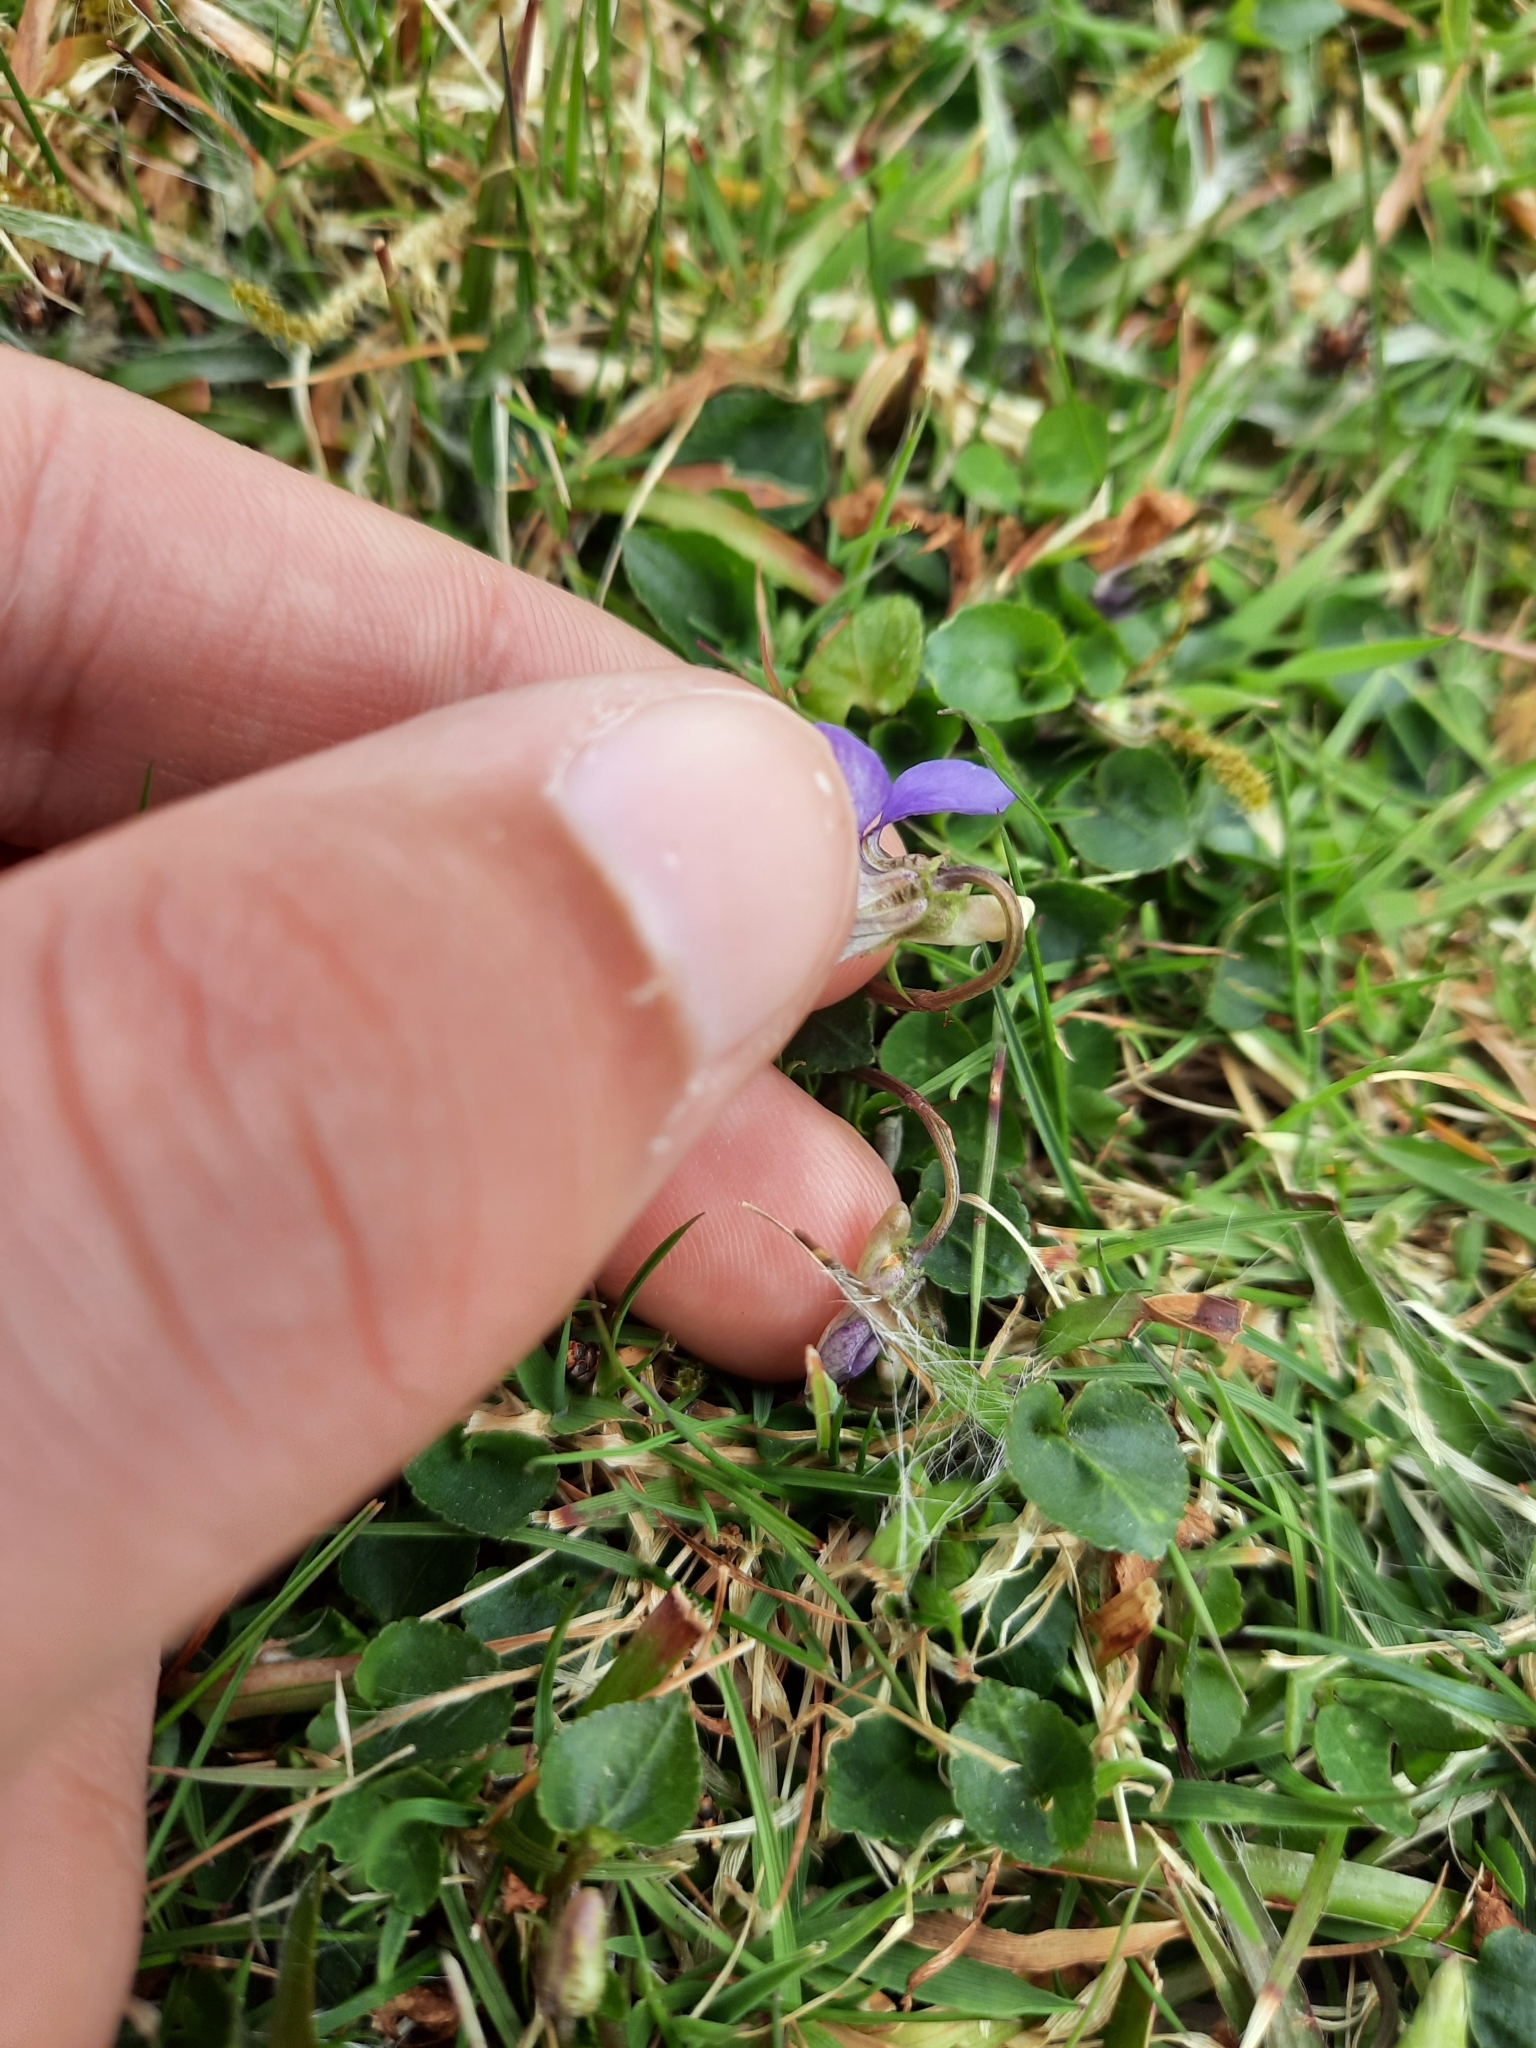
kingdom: Plantae
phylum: Tracheophyta
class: Magnoliopsida
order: Malpighiales
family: Violaceae
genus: Viola
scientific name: Viola riviniana
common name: Common dog-violet
